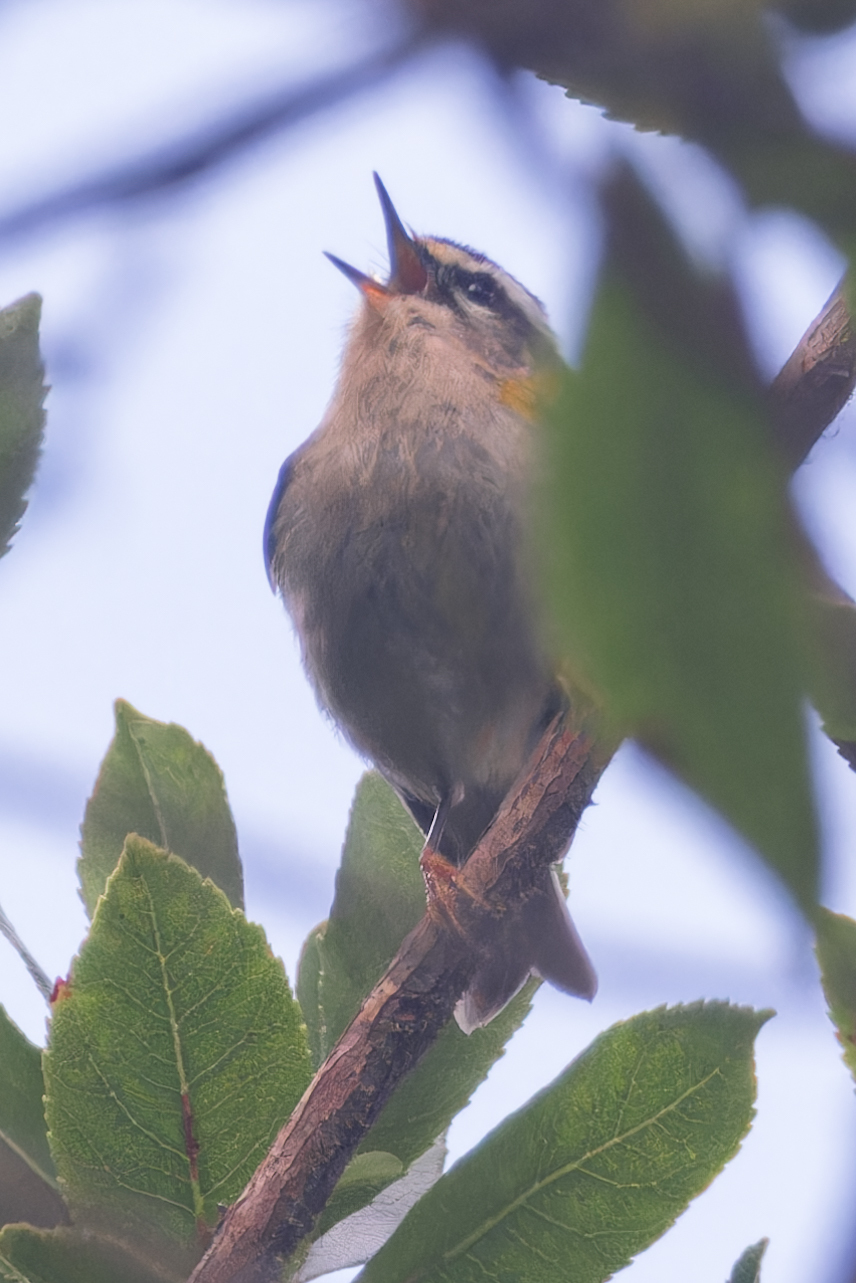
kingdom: Animalia
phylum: Chordata
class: Aves
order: Passeriformes
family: Regulidae
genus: Regulus
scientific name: Regulus ignicapilla
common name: Firecrest
